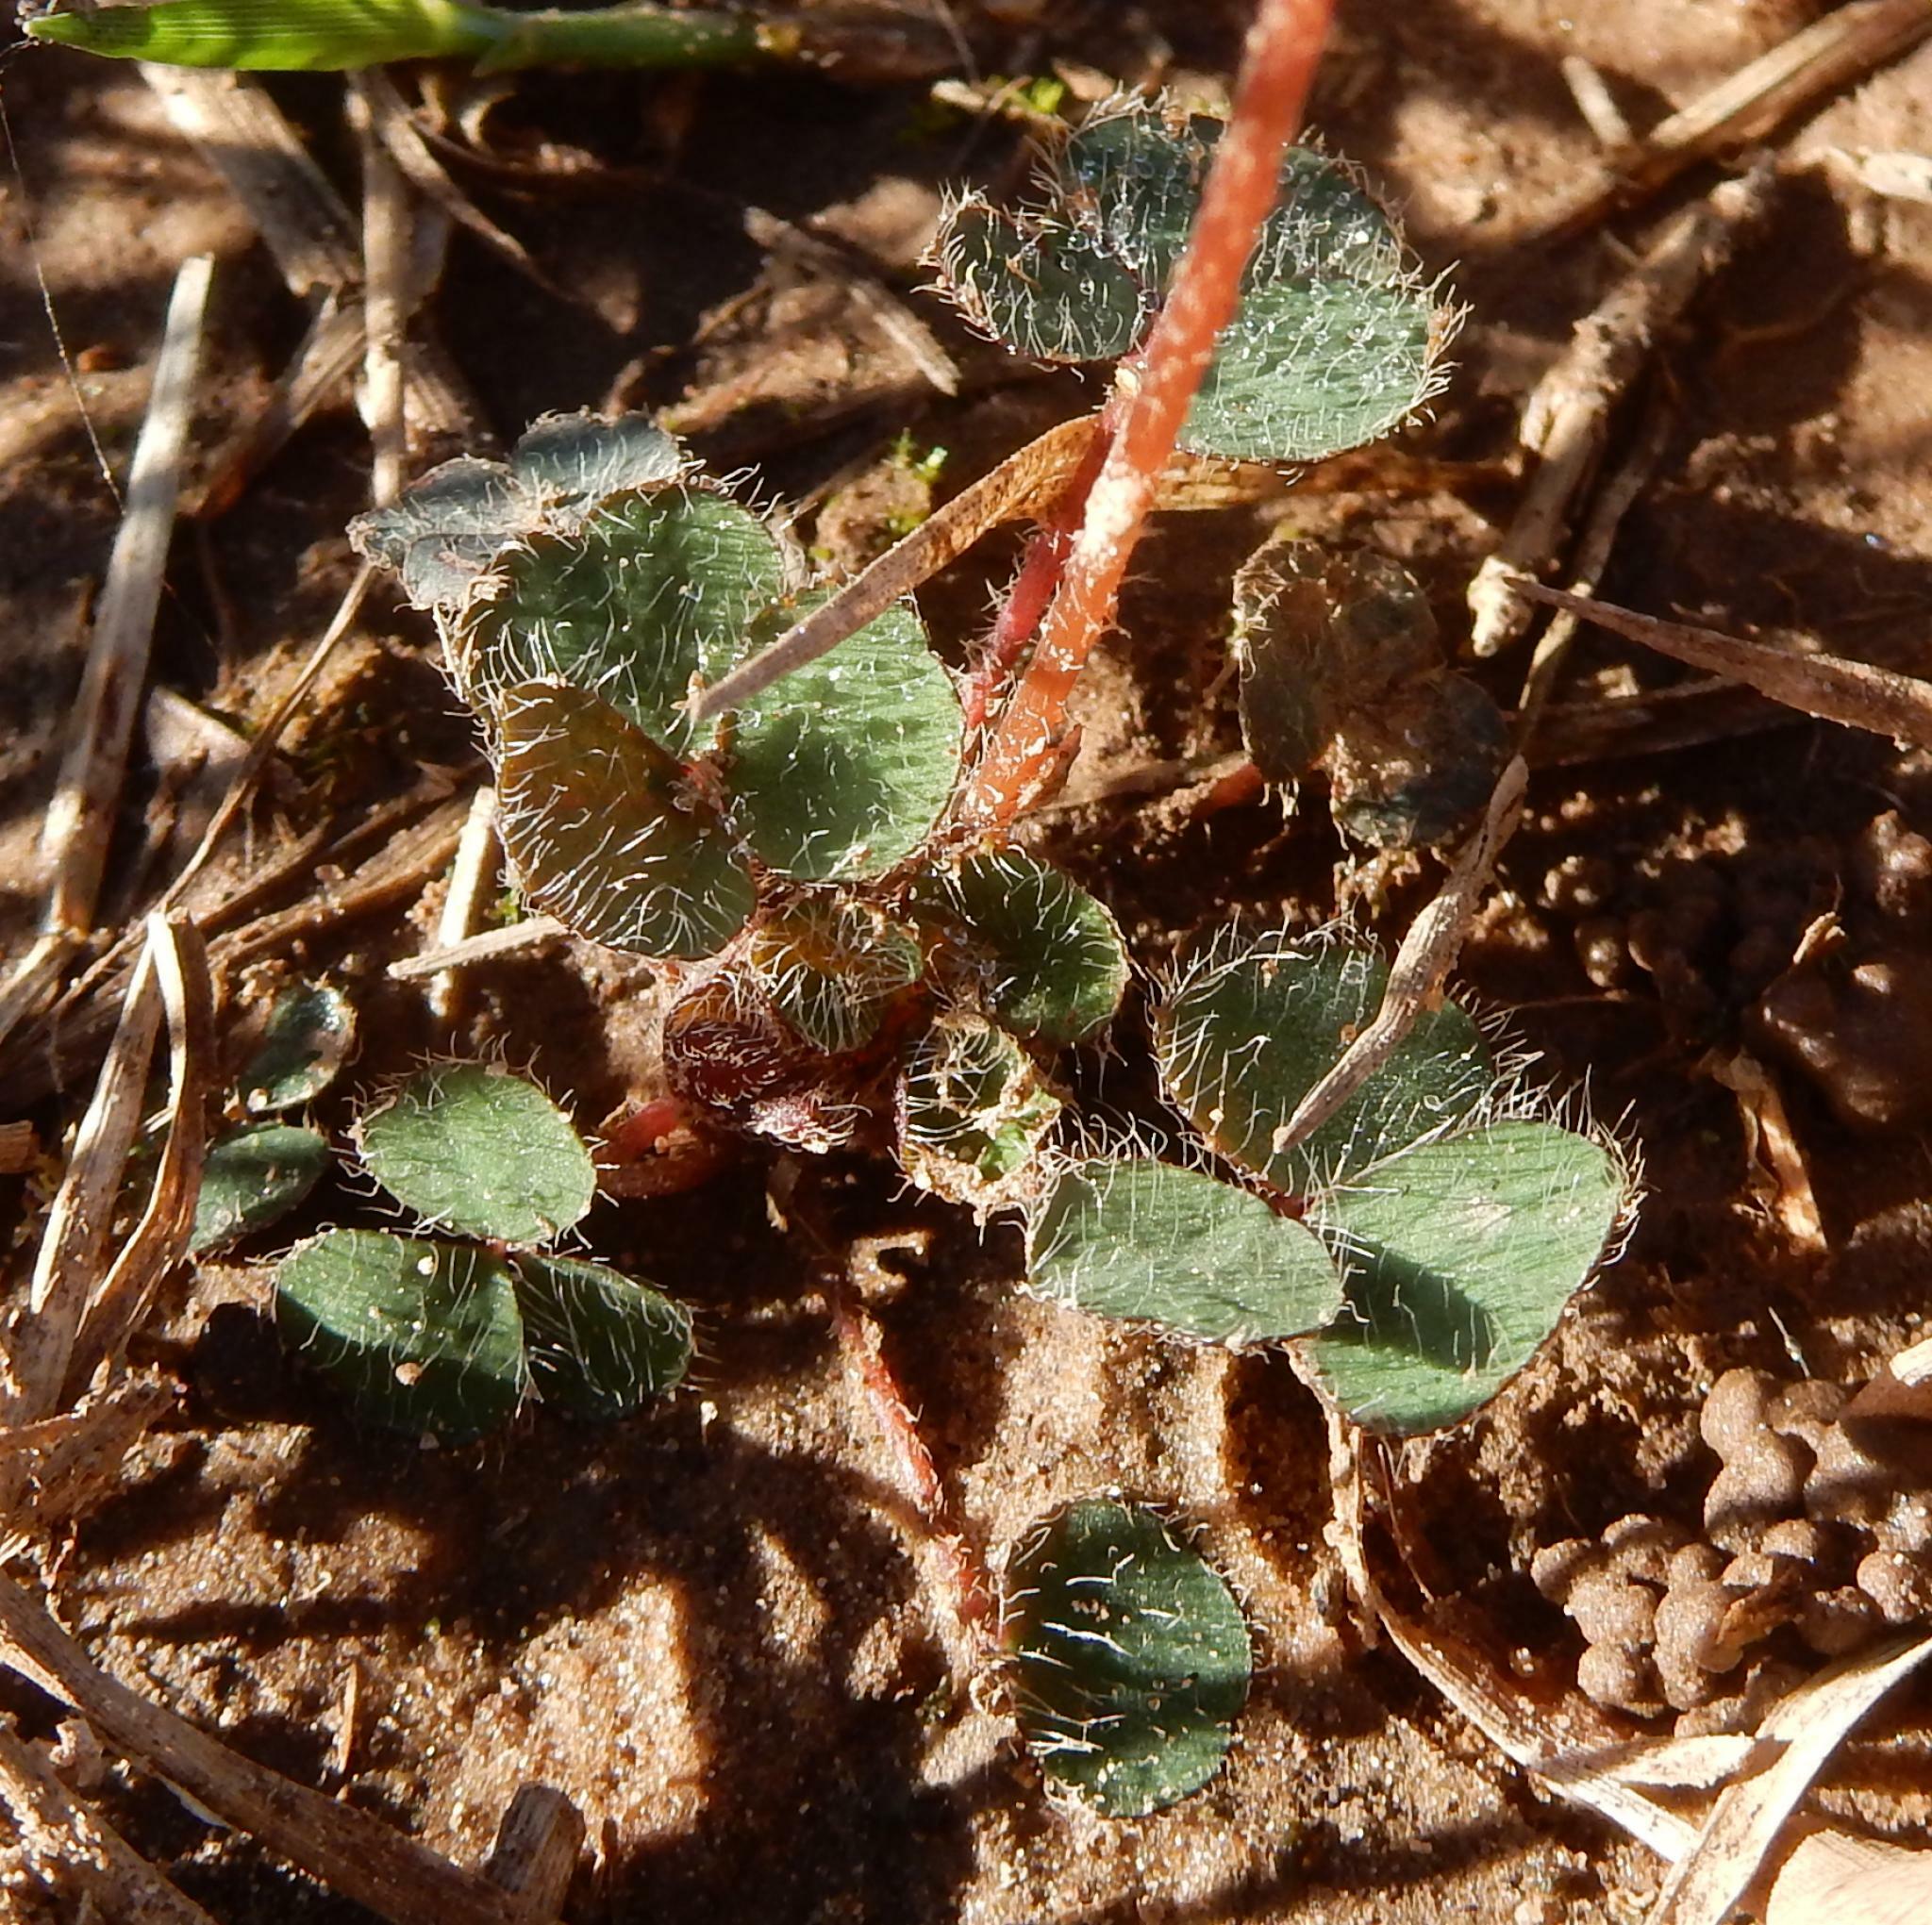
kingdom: Plantae
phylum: Tracheophyta
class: Magnoliopsida
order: Oxalidales
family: Oxalidaceae
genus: Oxalis
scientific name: Oxalis
